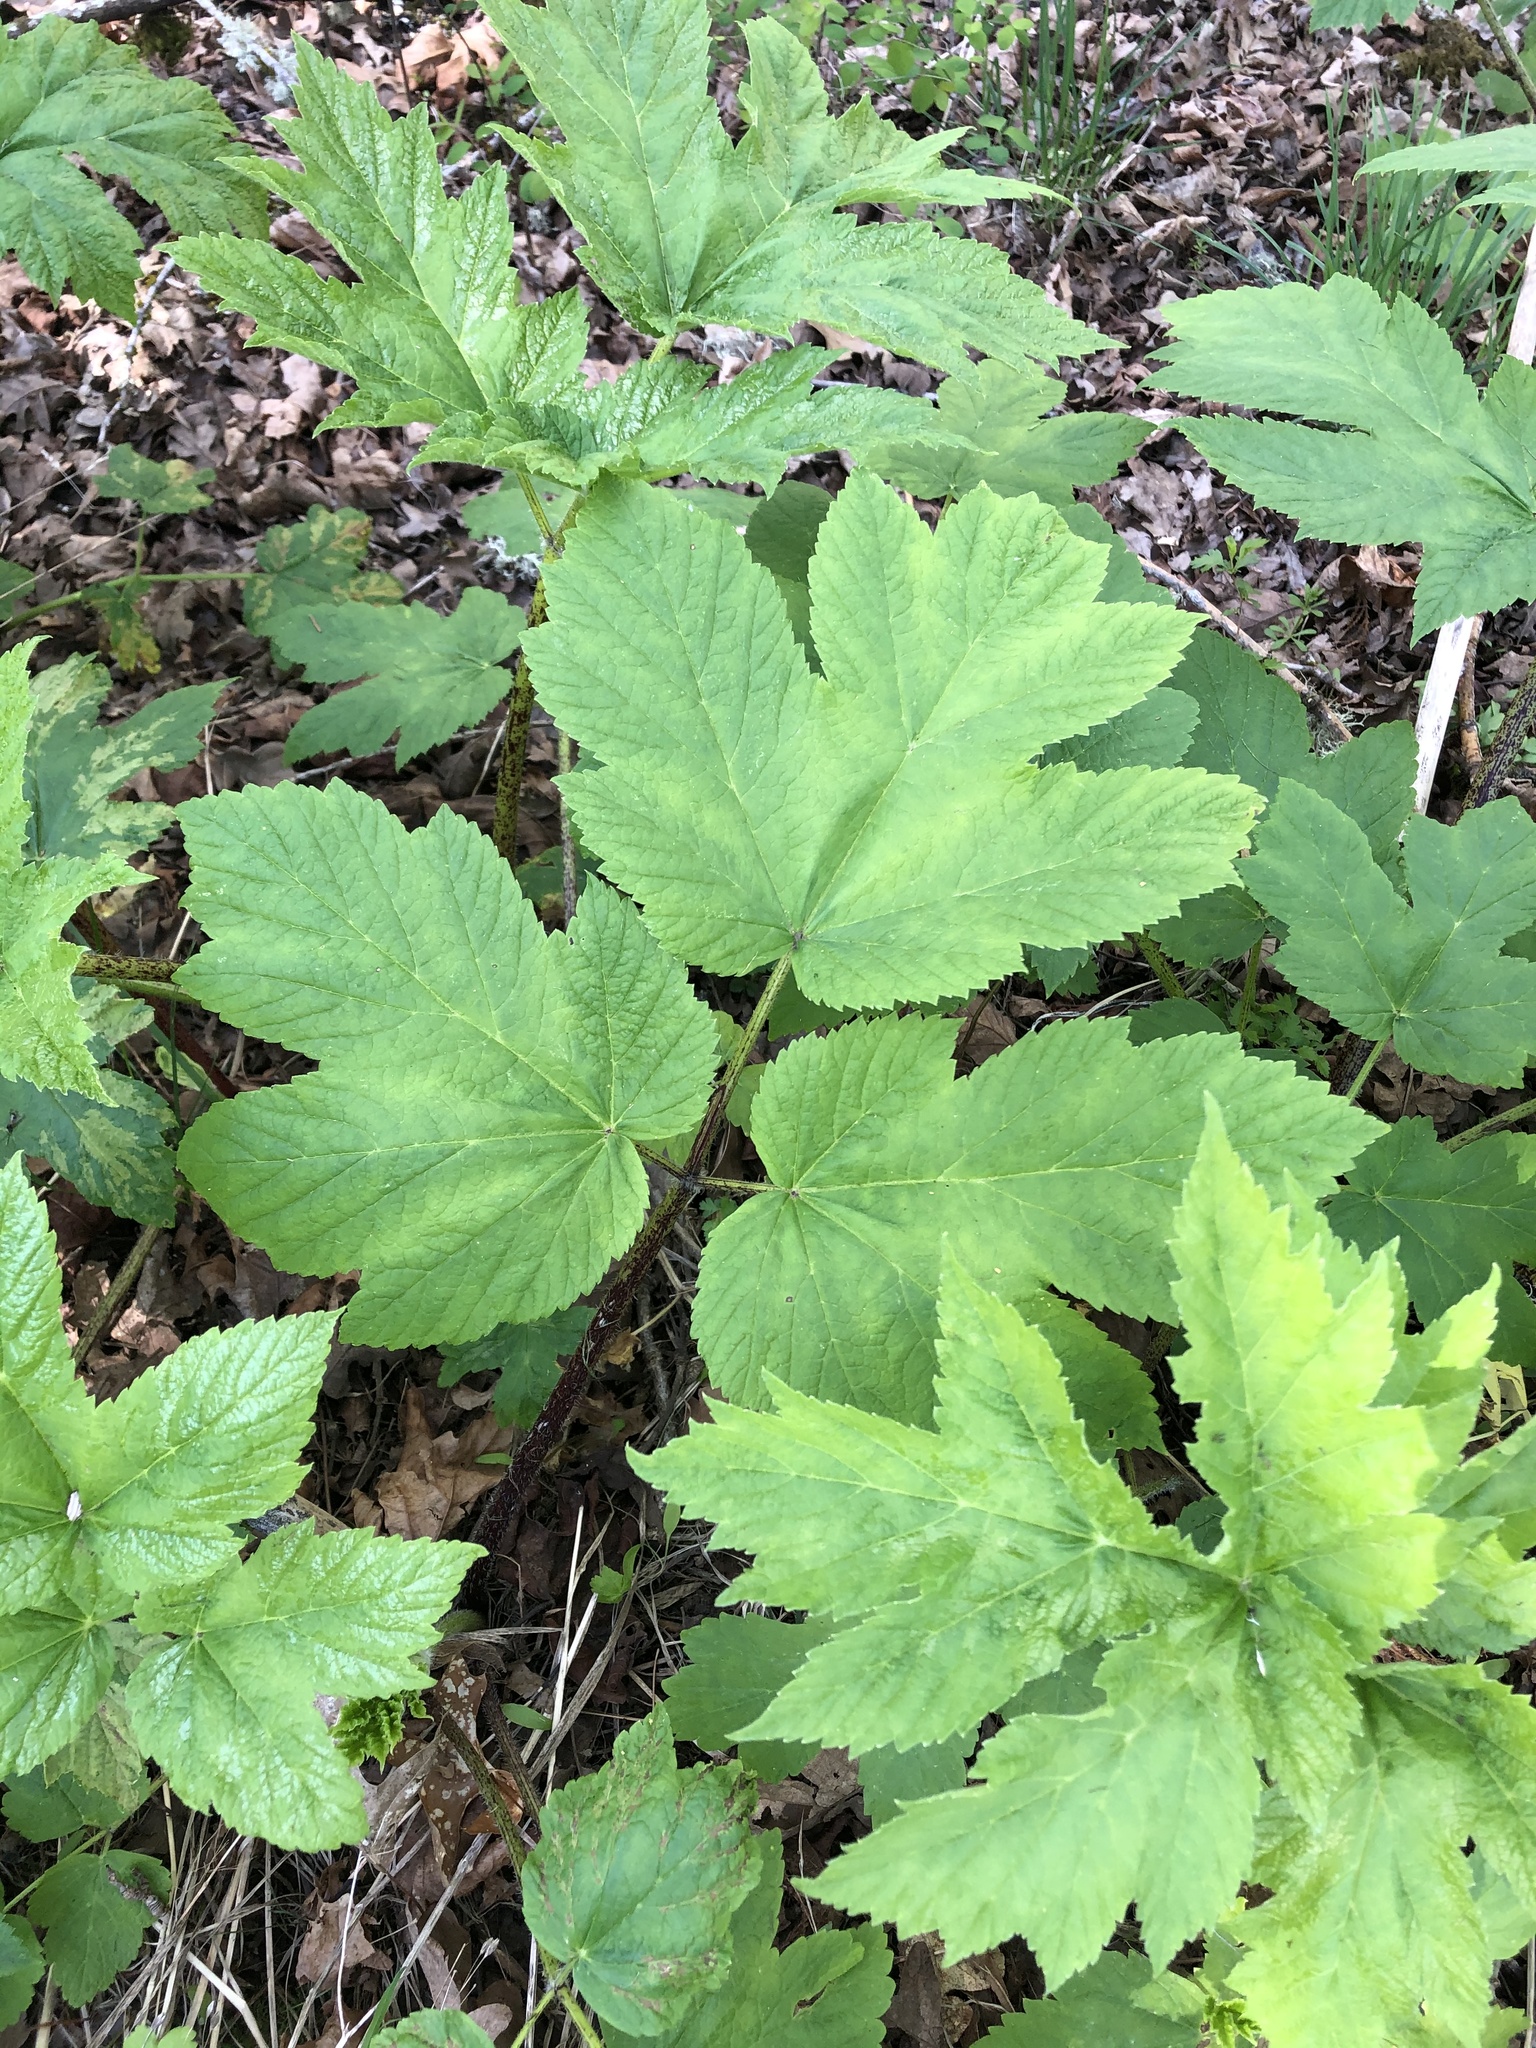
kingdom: Plantae
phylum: Tracheophyta
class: Magnoliopsida
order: Apiales
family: Apiaceae
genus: Heracleum
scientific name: Heracleum maximum
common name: American cow parsnip
